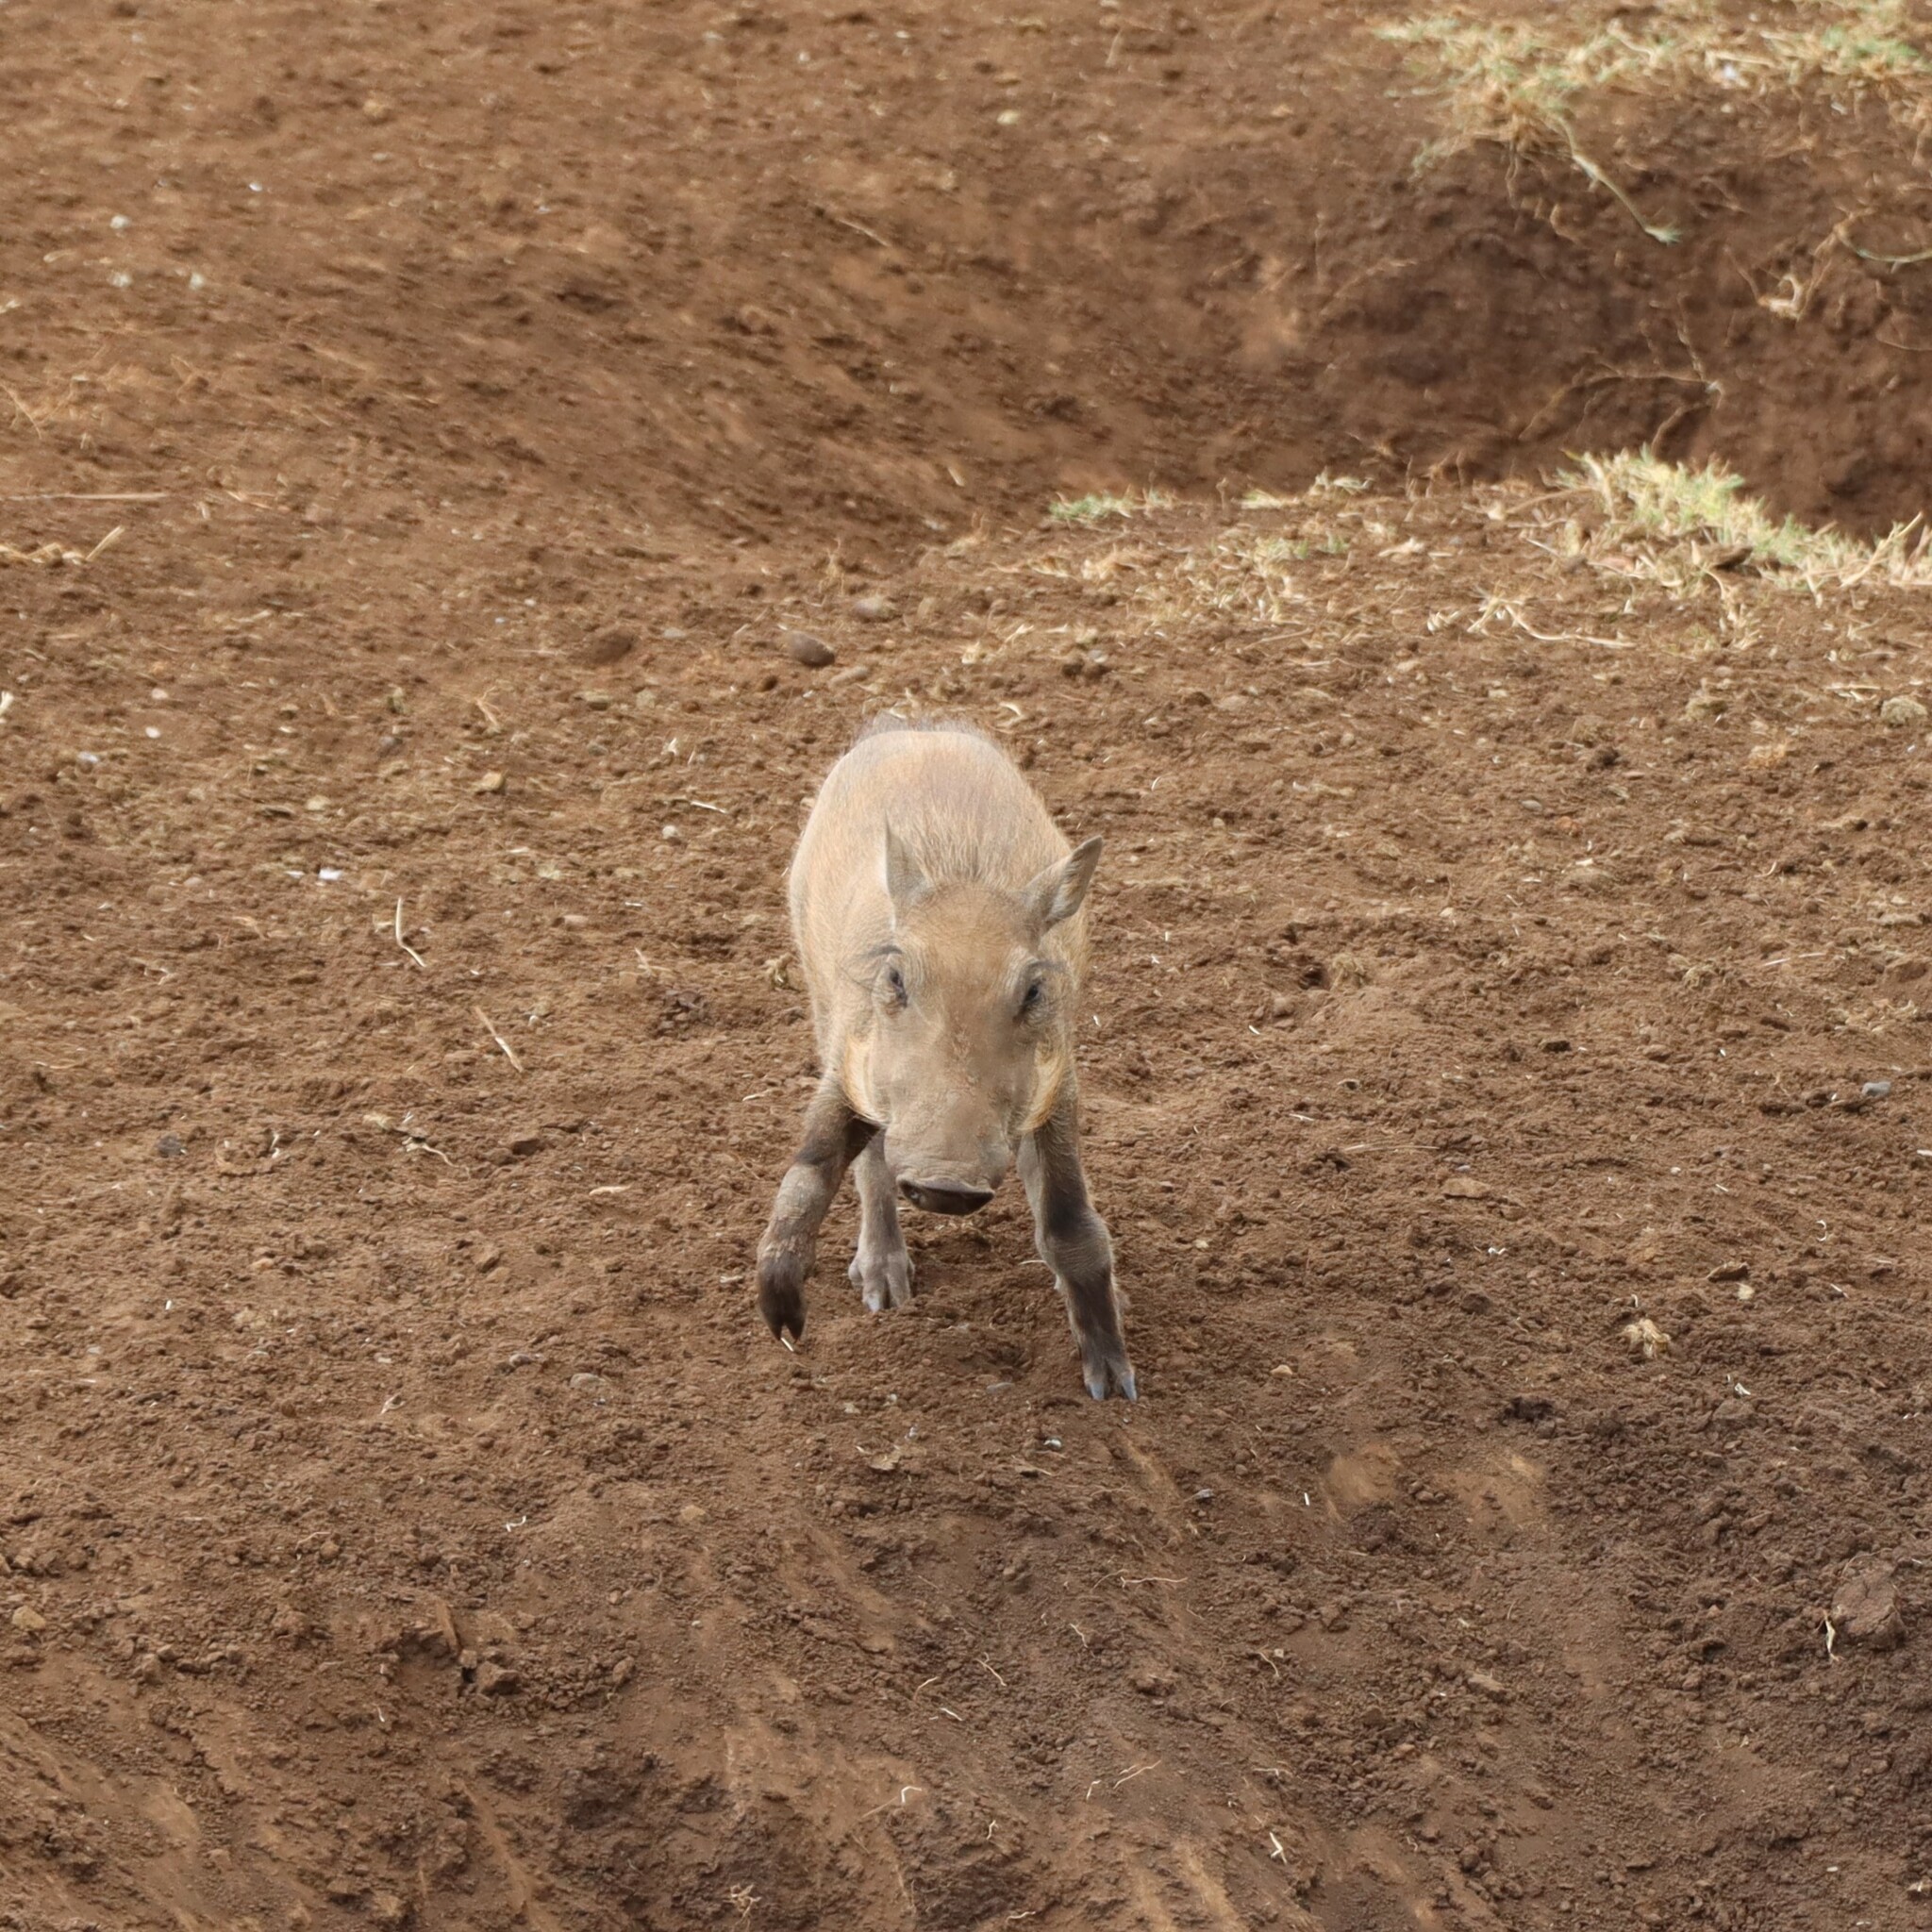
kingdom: Animalia
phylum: Chordata
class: Mammalia
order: Artiodactyla
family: Suidae
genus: Phacochoerus
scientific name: Phacochoerus africanus
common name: Common warthog
